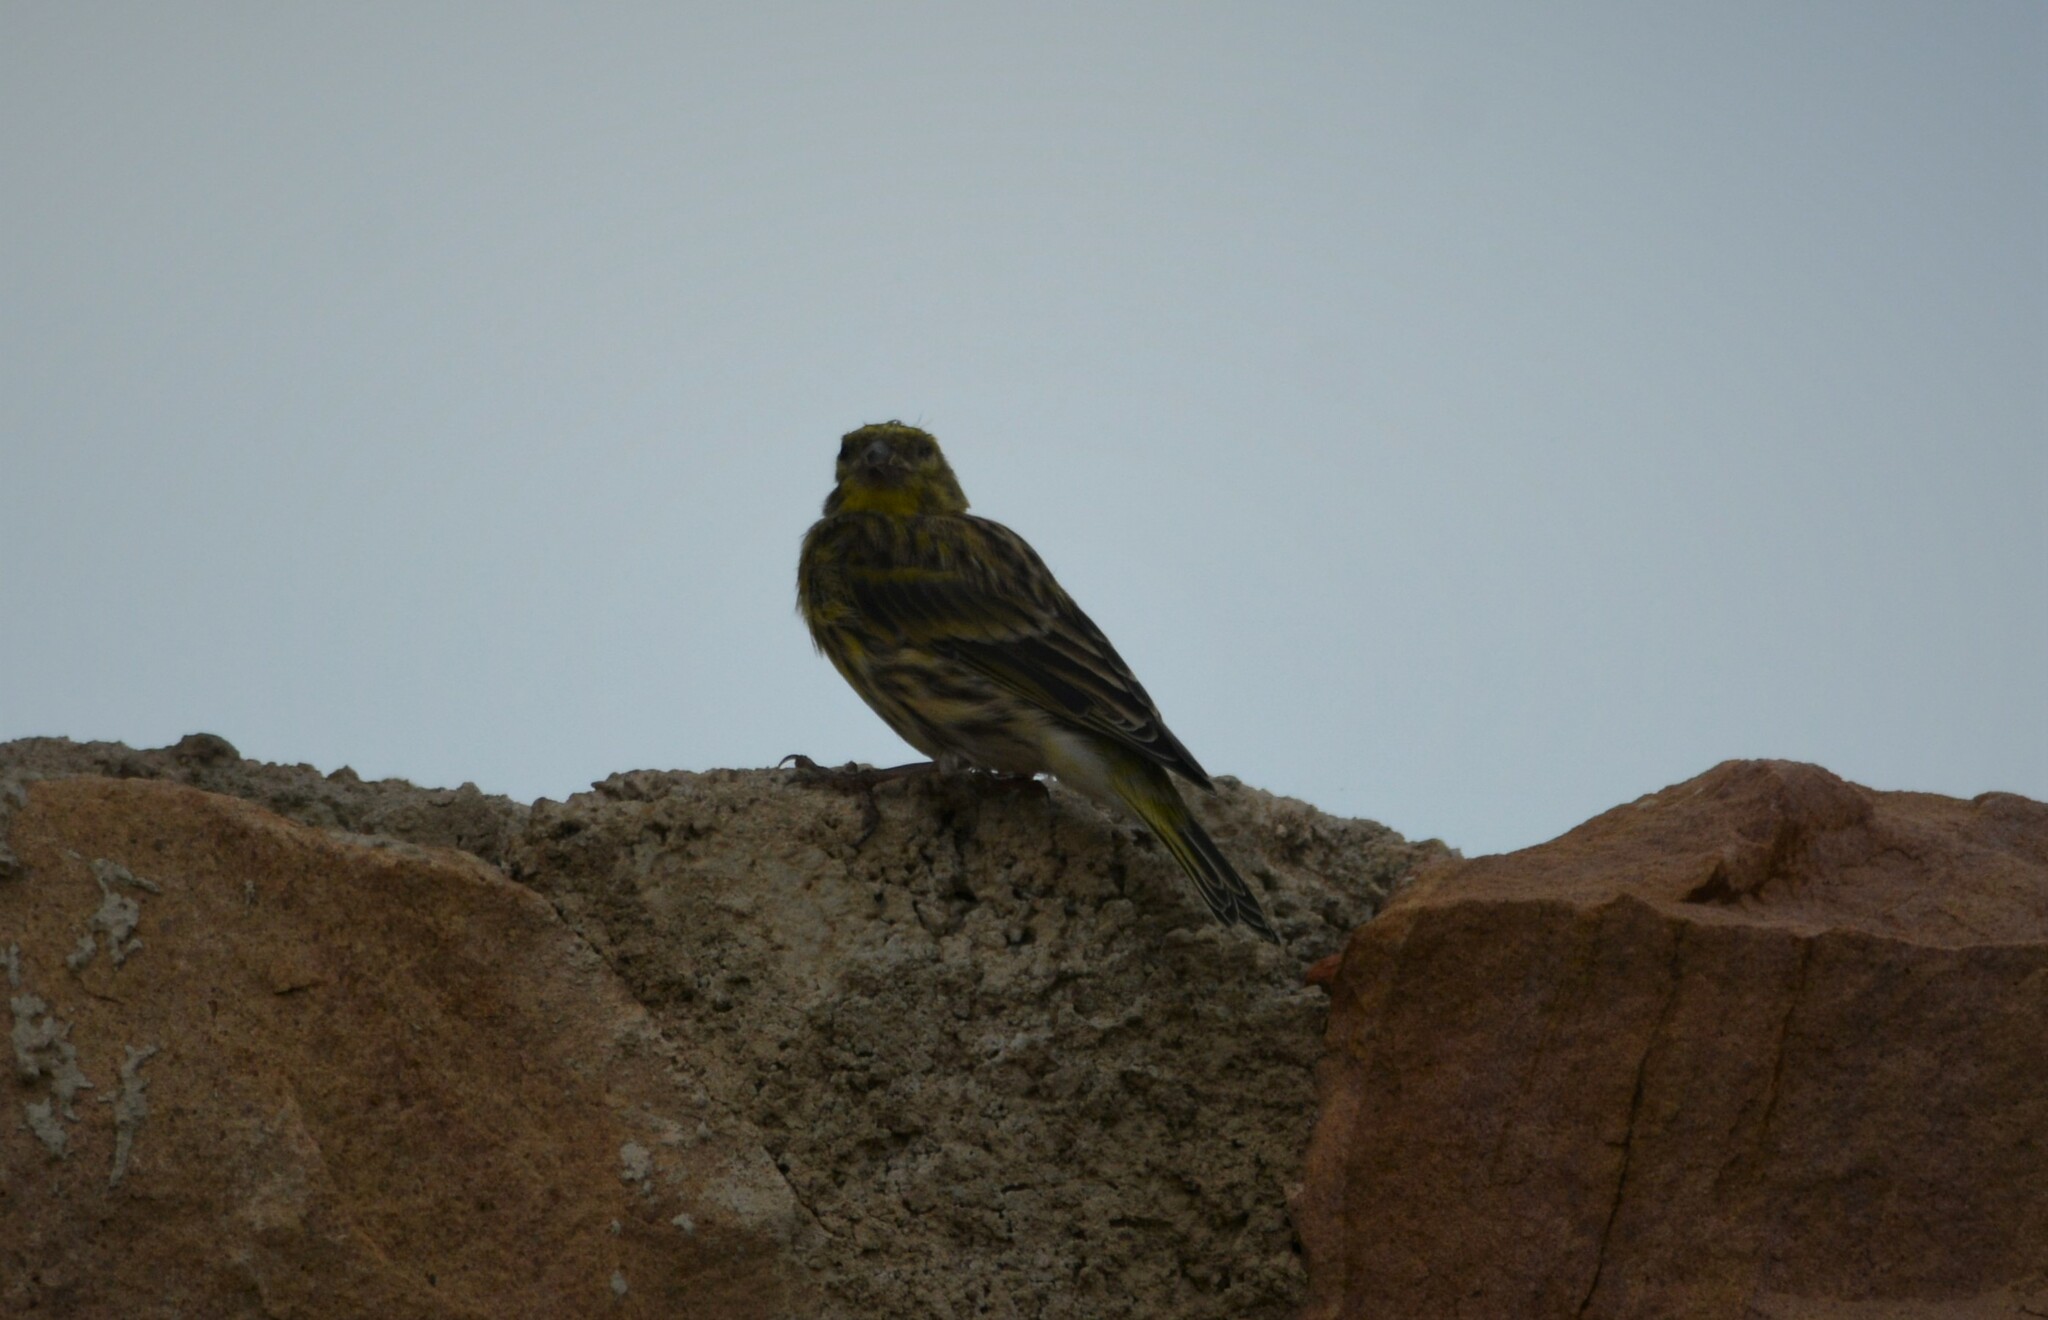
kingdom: Animalia
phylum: Chordata
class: Aves
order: Passeriformes
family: Fringillidae
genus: Serinus
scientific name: Serinus serinus
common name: European serin
